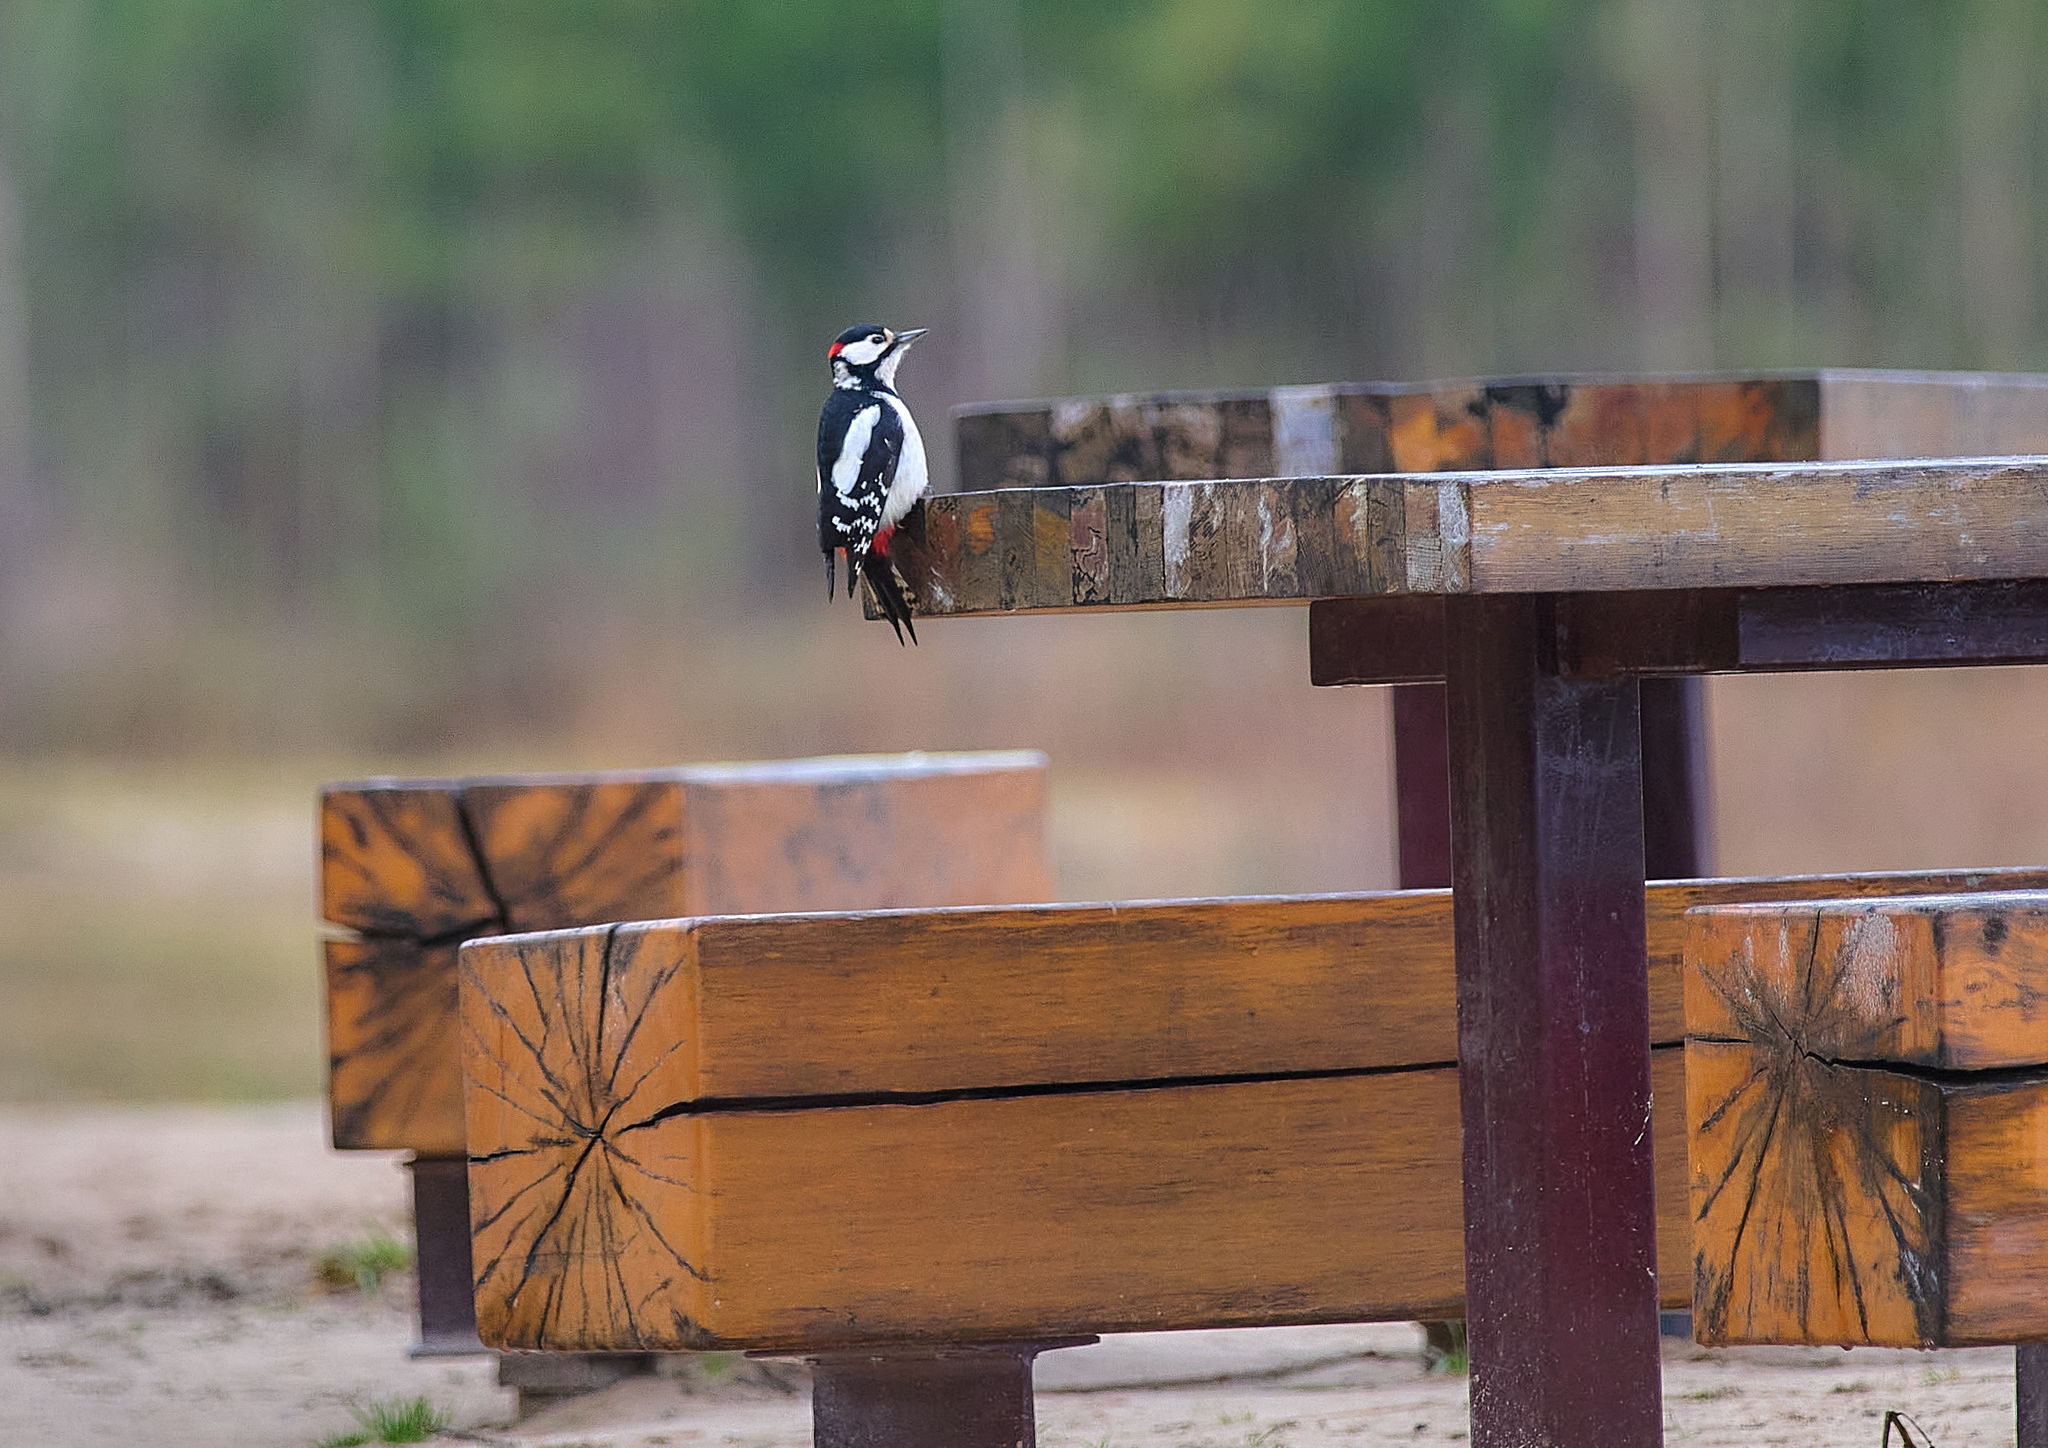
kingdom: Animalia
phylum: Chordata
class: Aves
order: Piciformes
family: Picidae
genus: Dendrocopos
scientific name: Dendrocopos major
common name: Great spotted woodpecker
